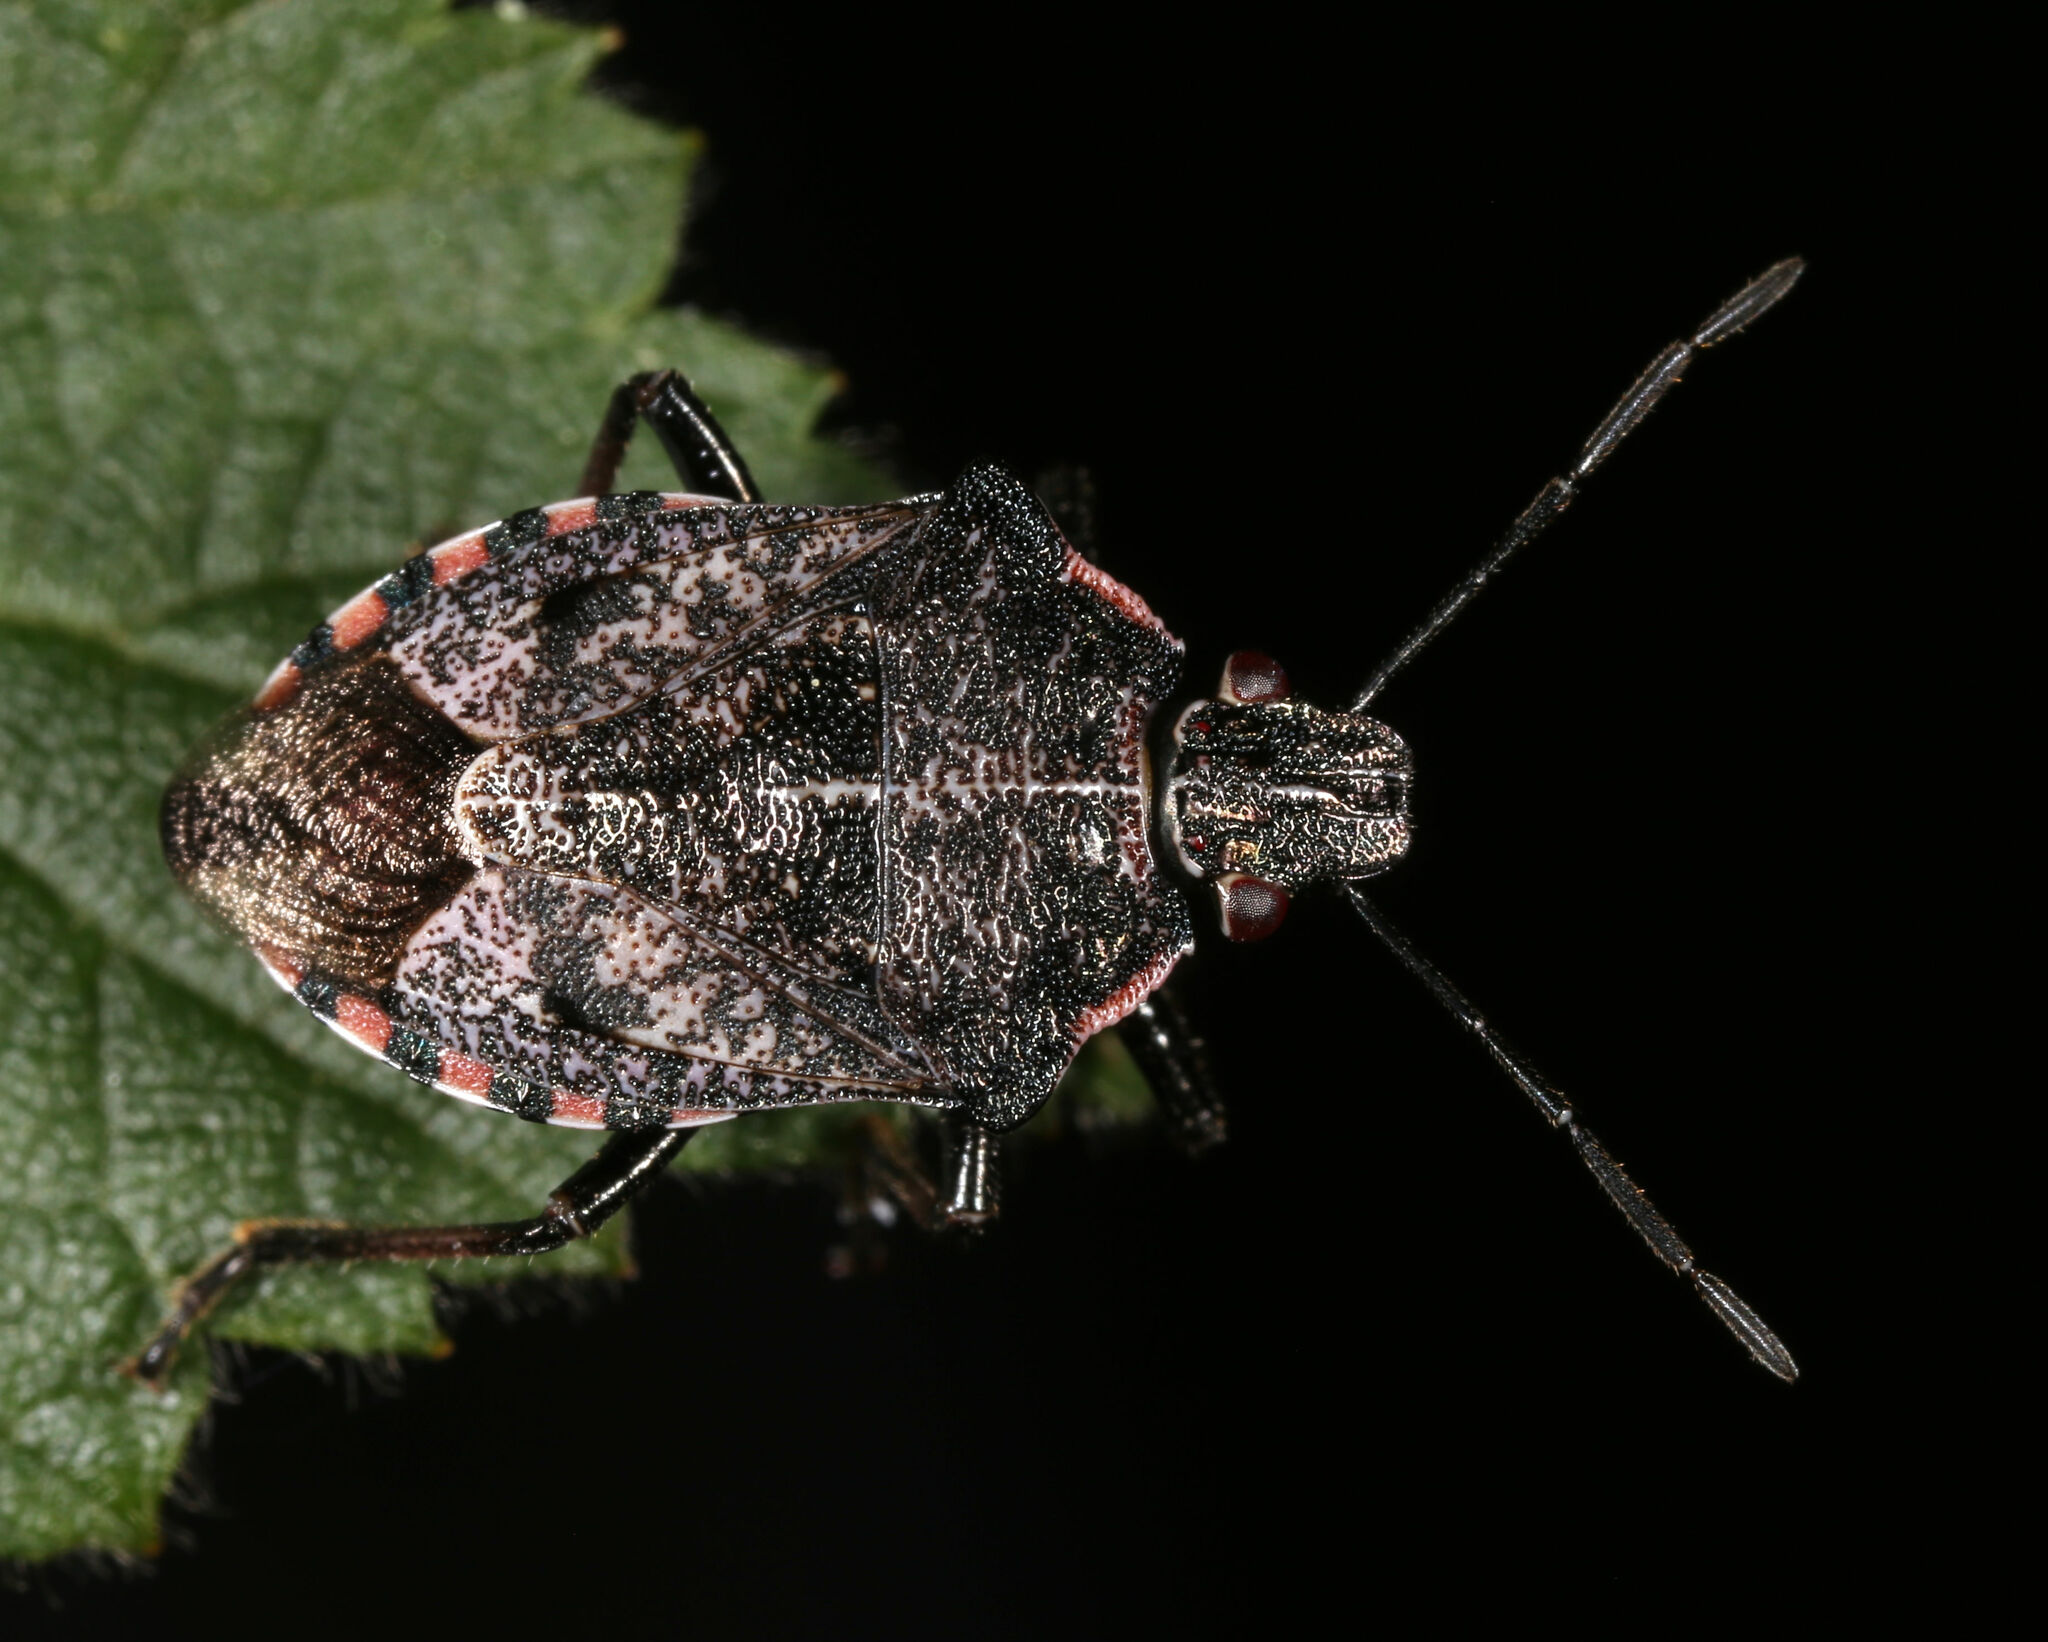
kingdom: Animalia
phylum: Arthropoda
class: Insecta
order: Hemiptera
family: Pentatomidae
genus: Podisus
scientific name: Podisus serieventris
